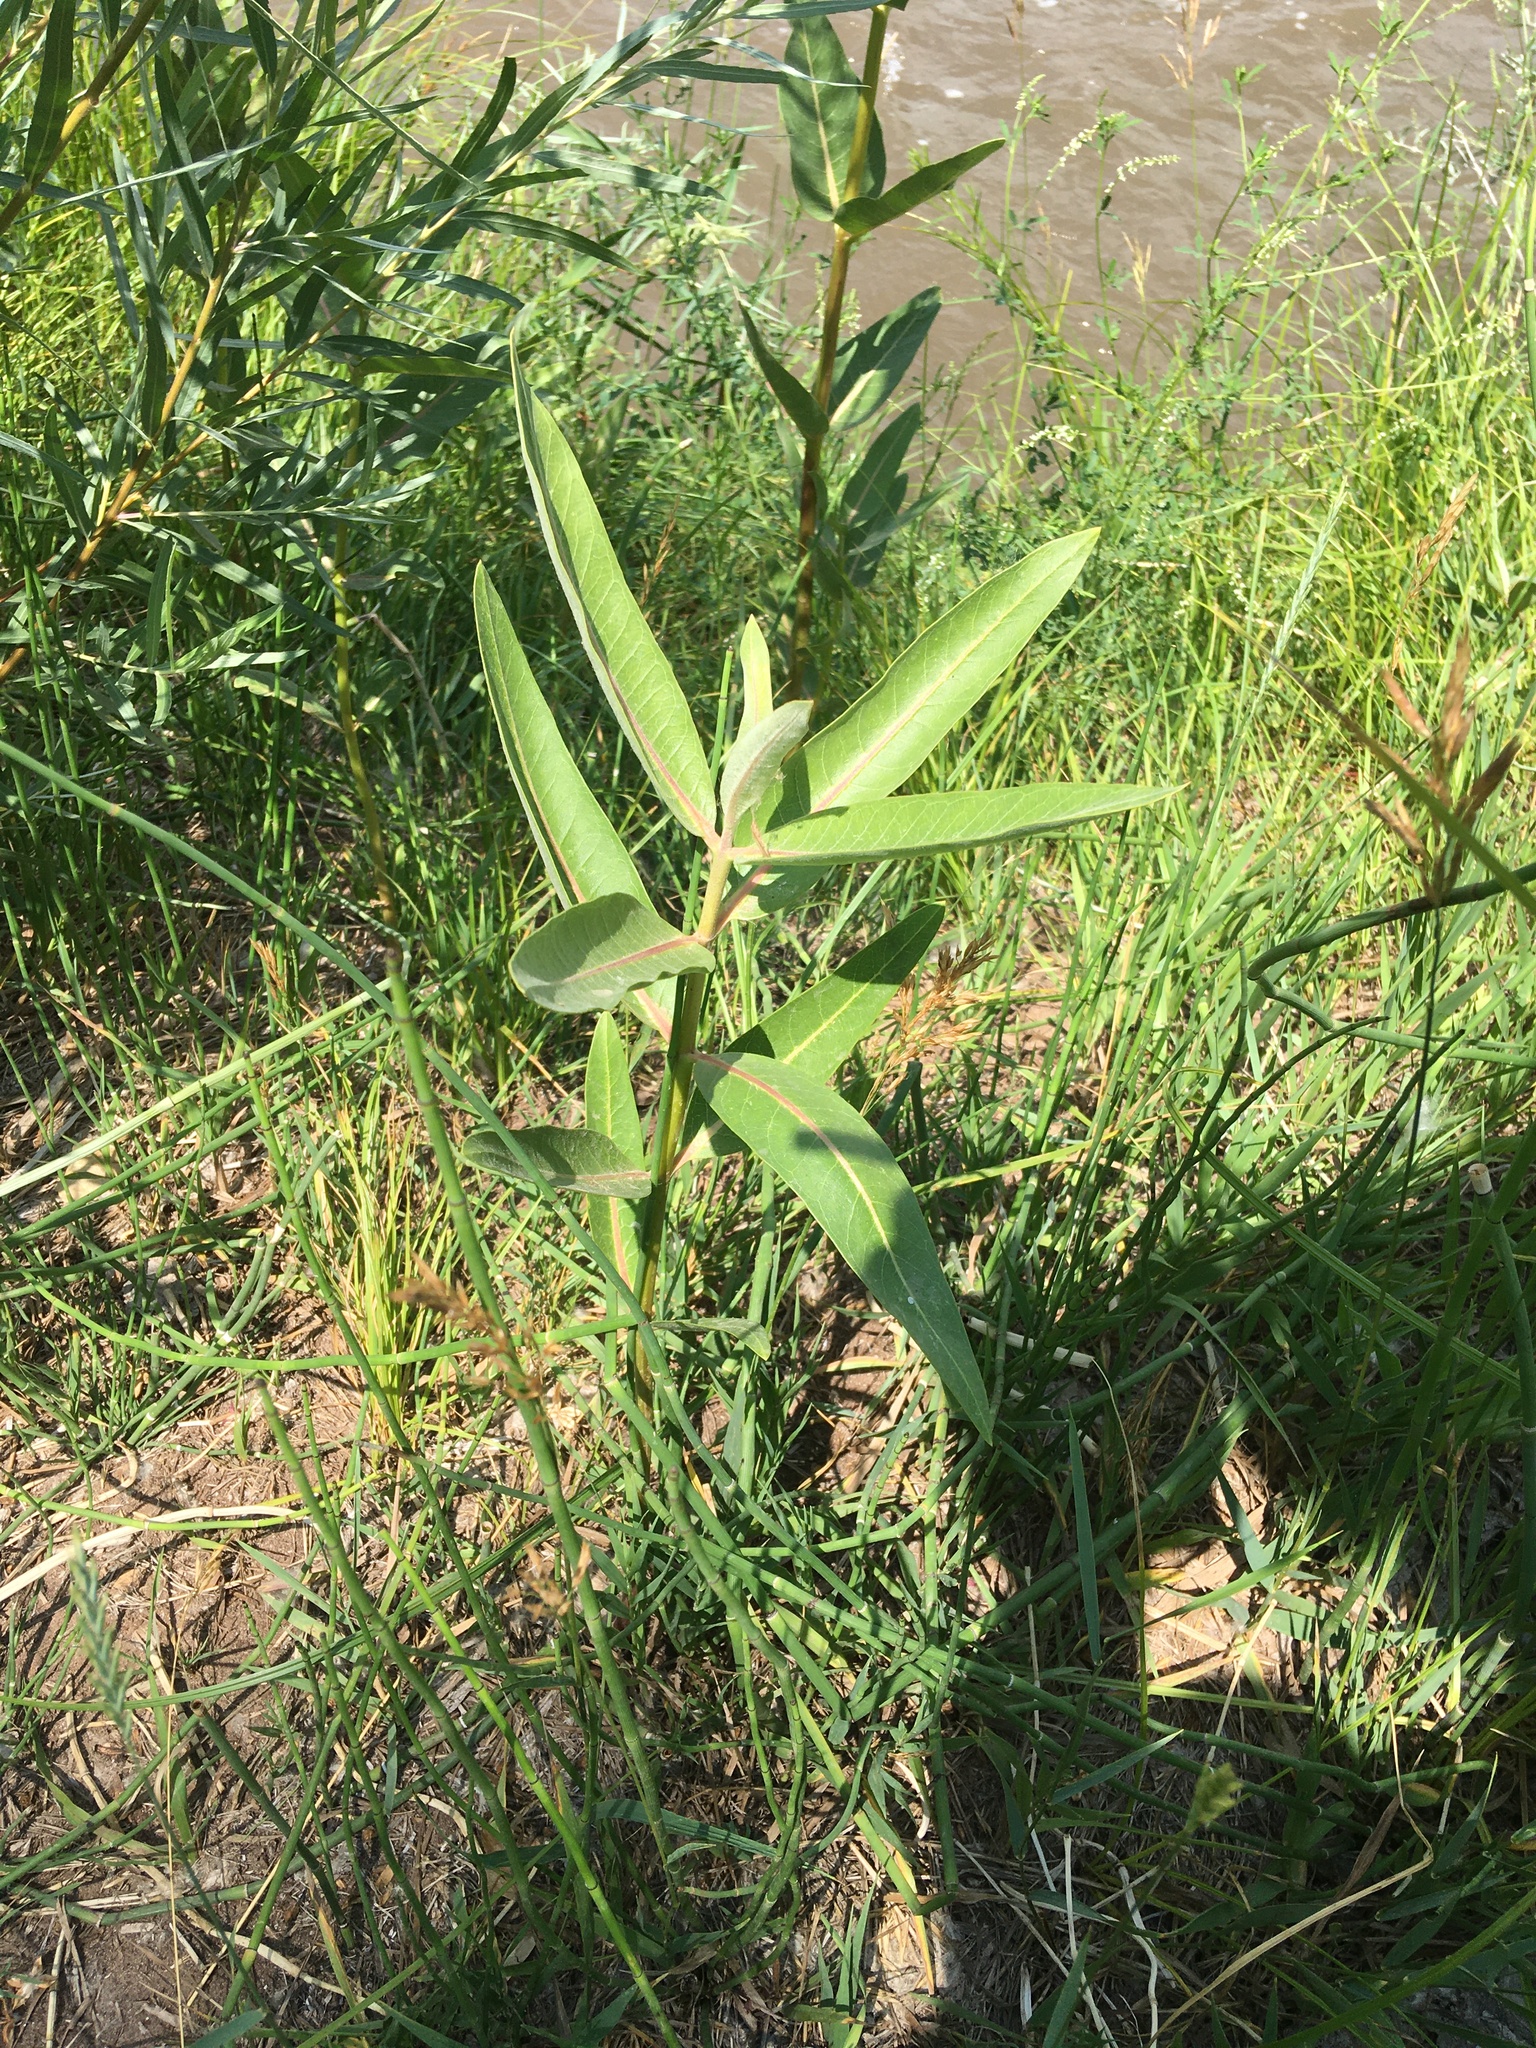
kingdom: Plantae
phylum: Tracheophyta
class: Magnoliopsida
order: Gentianales
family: Apocynaceae
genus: Asclepias
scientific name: Asclepias speciosa
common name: Showy milkweed
